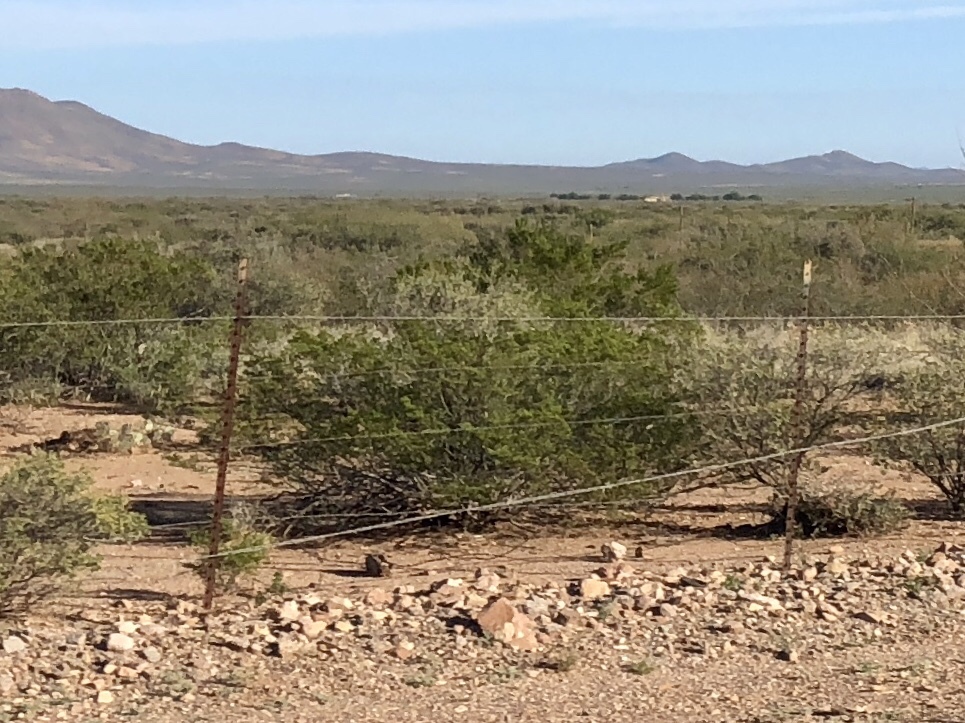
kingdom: Plantae
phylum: Tracheophyta
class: Magnoliopsida
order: Zygophyllales
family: Zygophyllaceae
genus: Larrea
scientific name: Larrea tridentata
